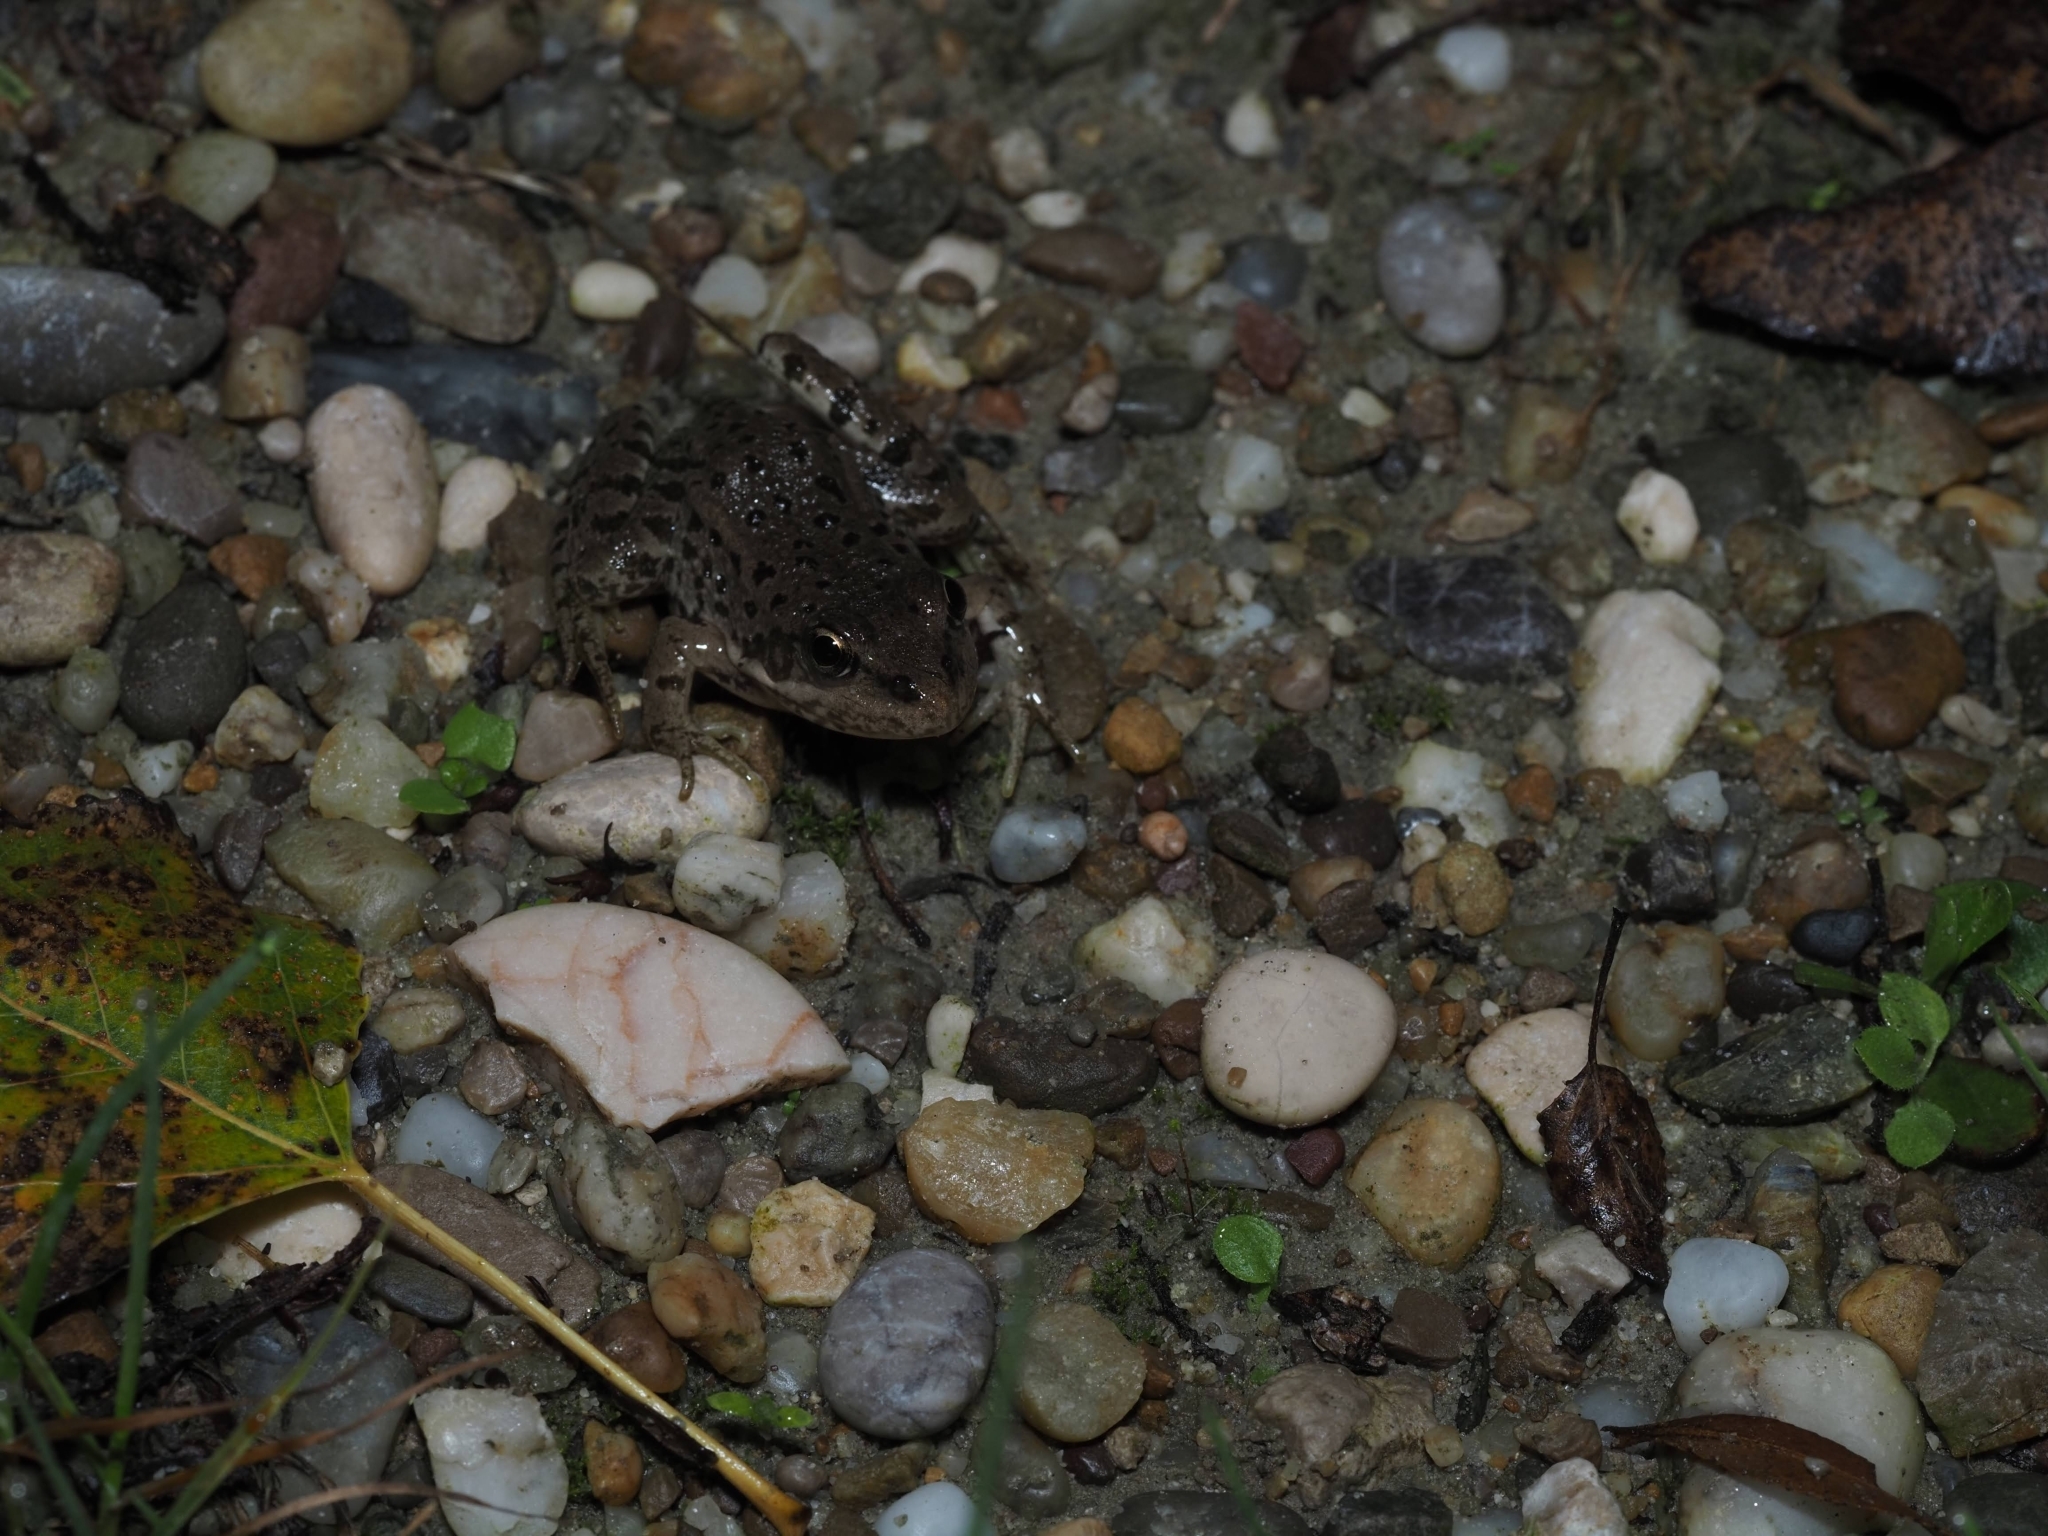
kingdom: Animalia
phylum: Chordata
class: Amphibia
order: Anura
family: Ranidae
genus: Pelophylax
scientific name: Pelophylax
